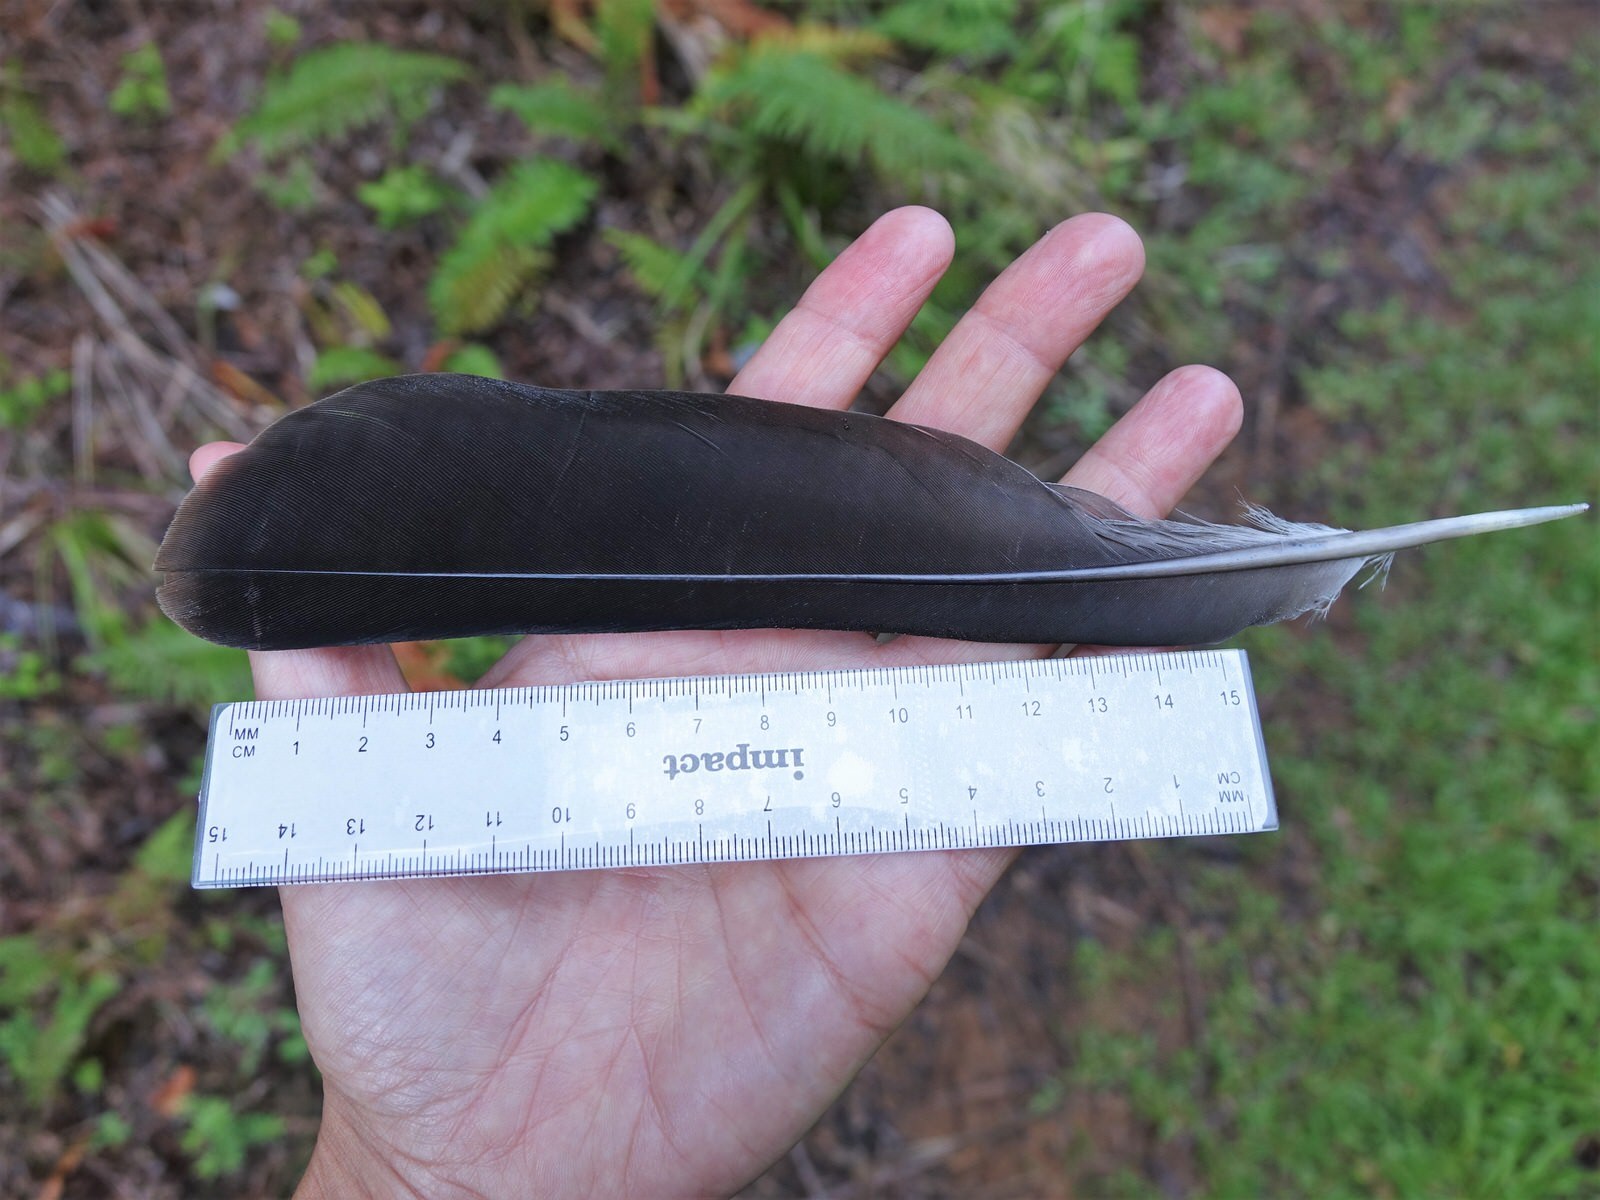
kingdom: Animalia
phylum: Chordata
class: Aves
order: Columbiformes
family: Columbidae
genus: Hemiphaga
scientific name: Hemiphaga novaeseelandiae
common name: New zealand pigeon
